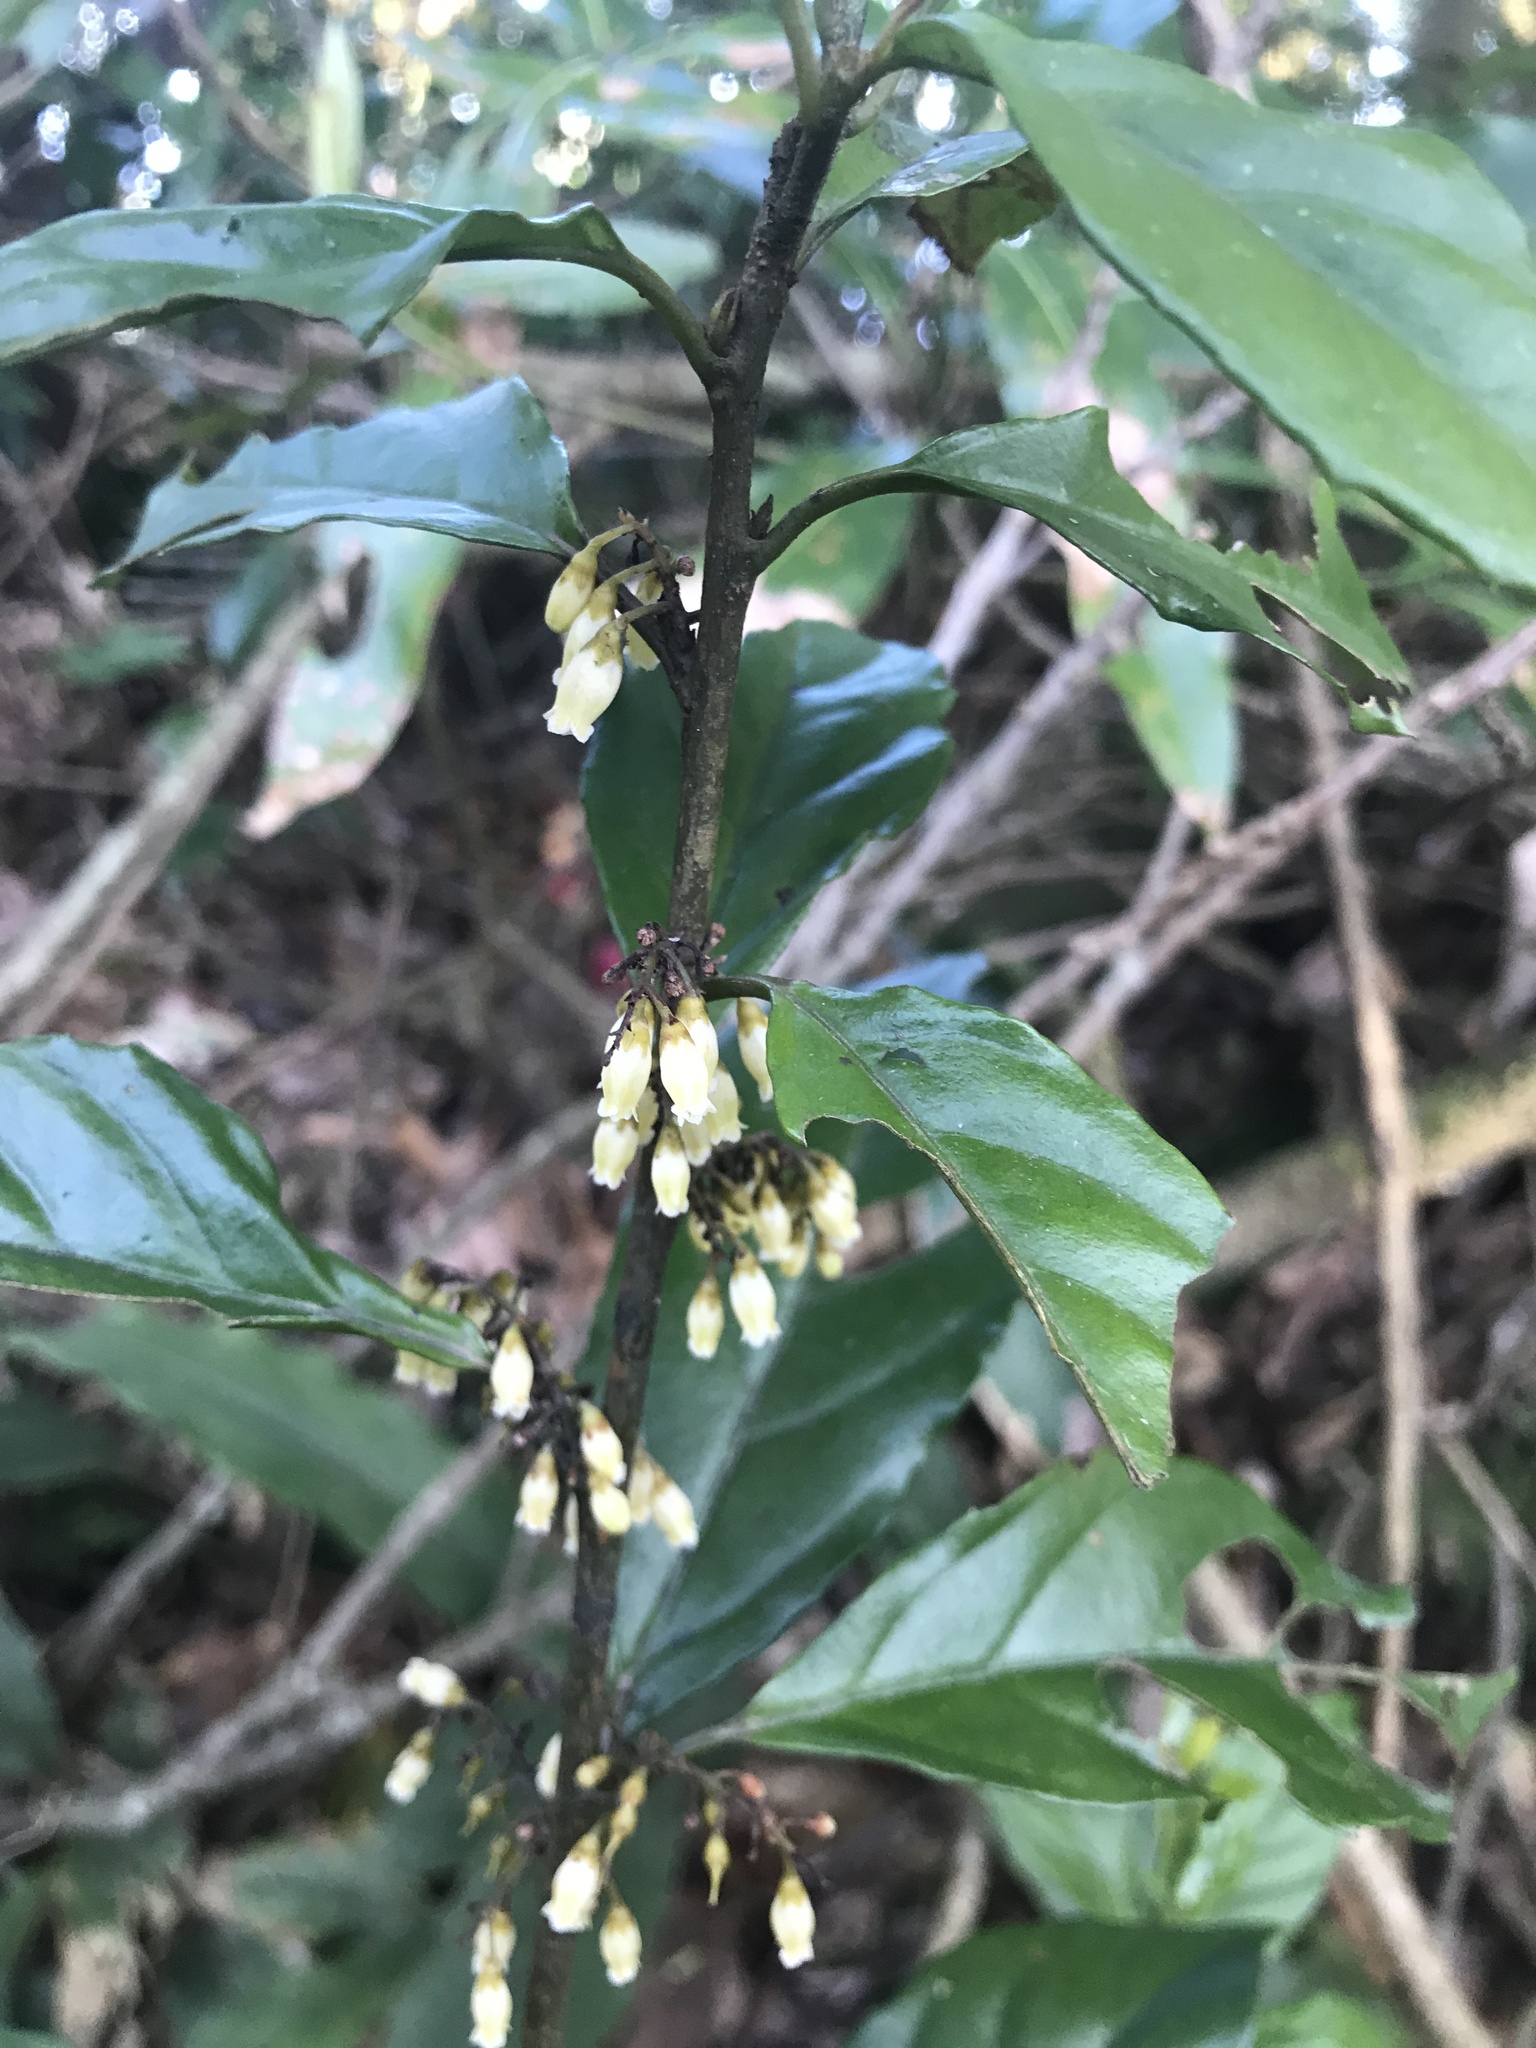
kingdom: Plantae
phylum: Tracheophyta
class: Magnoliopsida
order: Ericales
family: Primulaceae
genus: Maesa
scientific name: Maesa japonica
